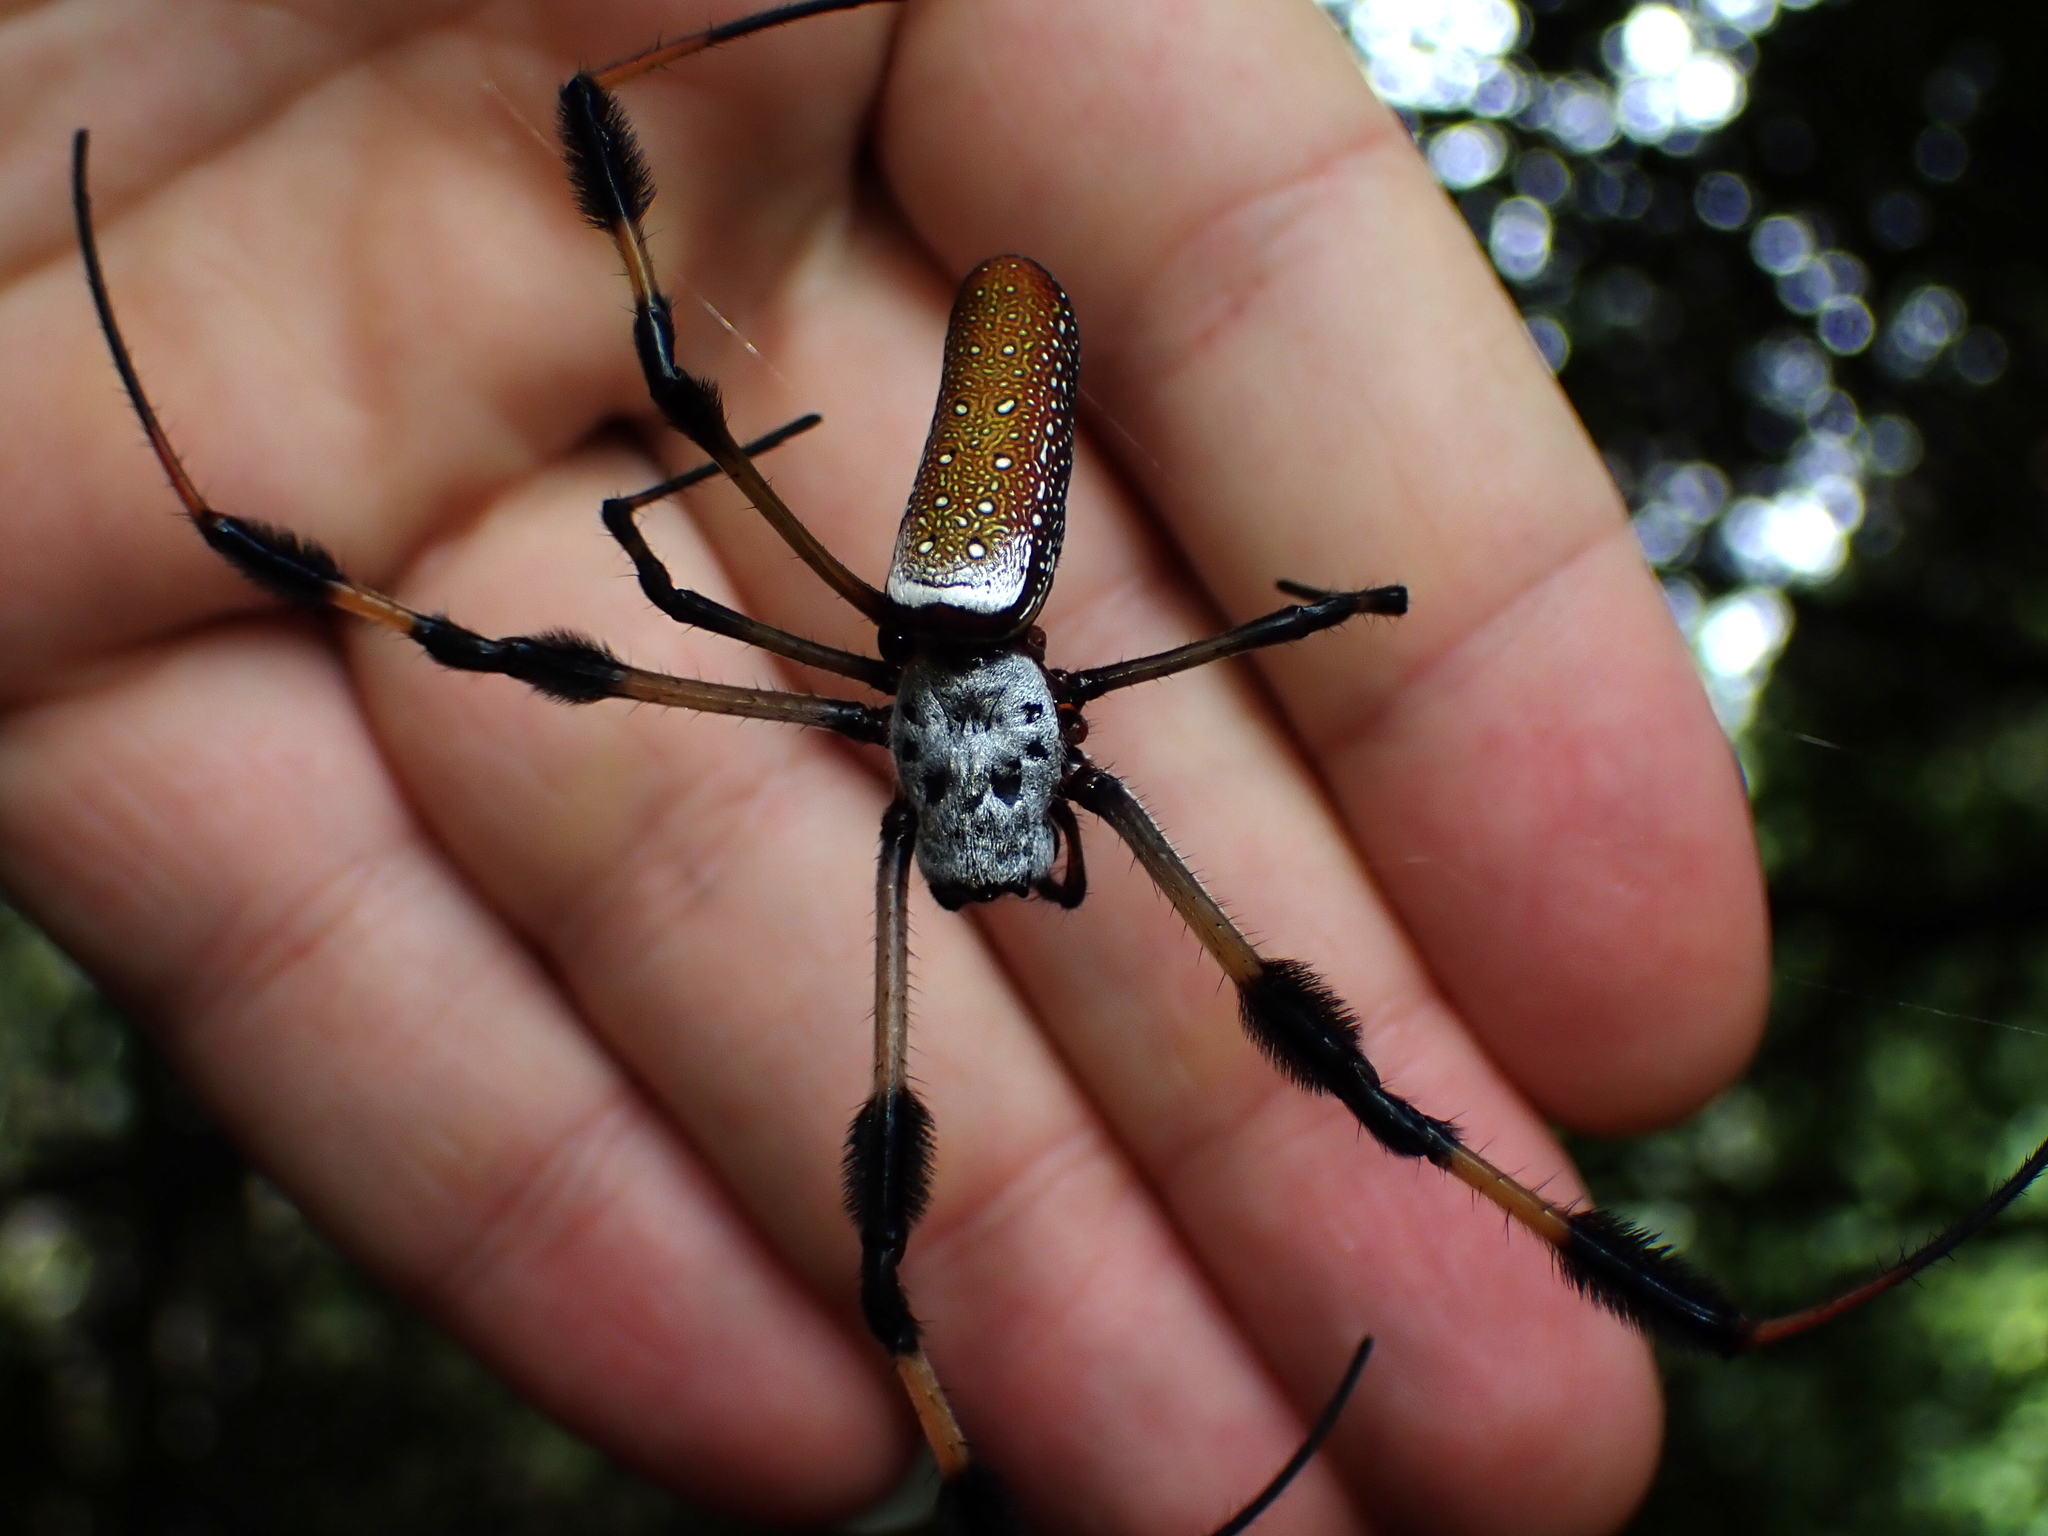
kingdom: Animalia
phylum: Arthropoda
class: Arachnida
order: Araneae
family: Araneidae
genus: Trichonephila
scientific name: Trichonephila clavipes
